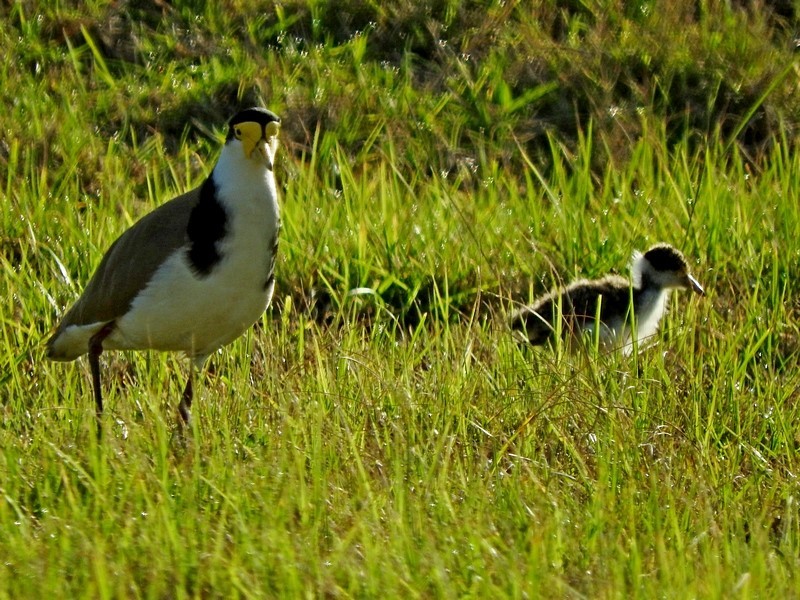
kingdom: Animalia
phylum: Chordata
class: Aves
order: Charadriiformes
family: Charadriidae
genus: Vanellus
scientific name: Vanellus miles
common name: Masked lapwing
